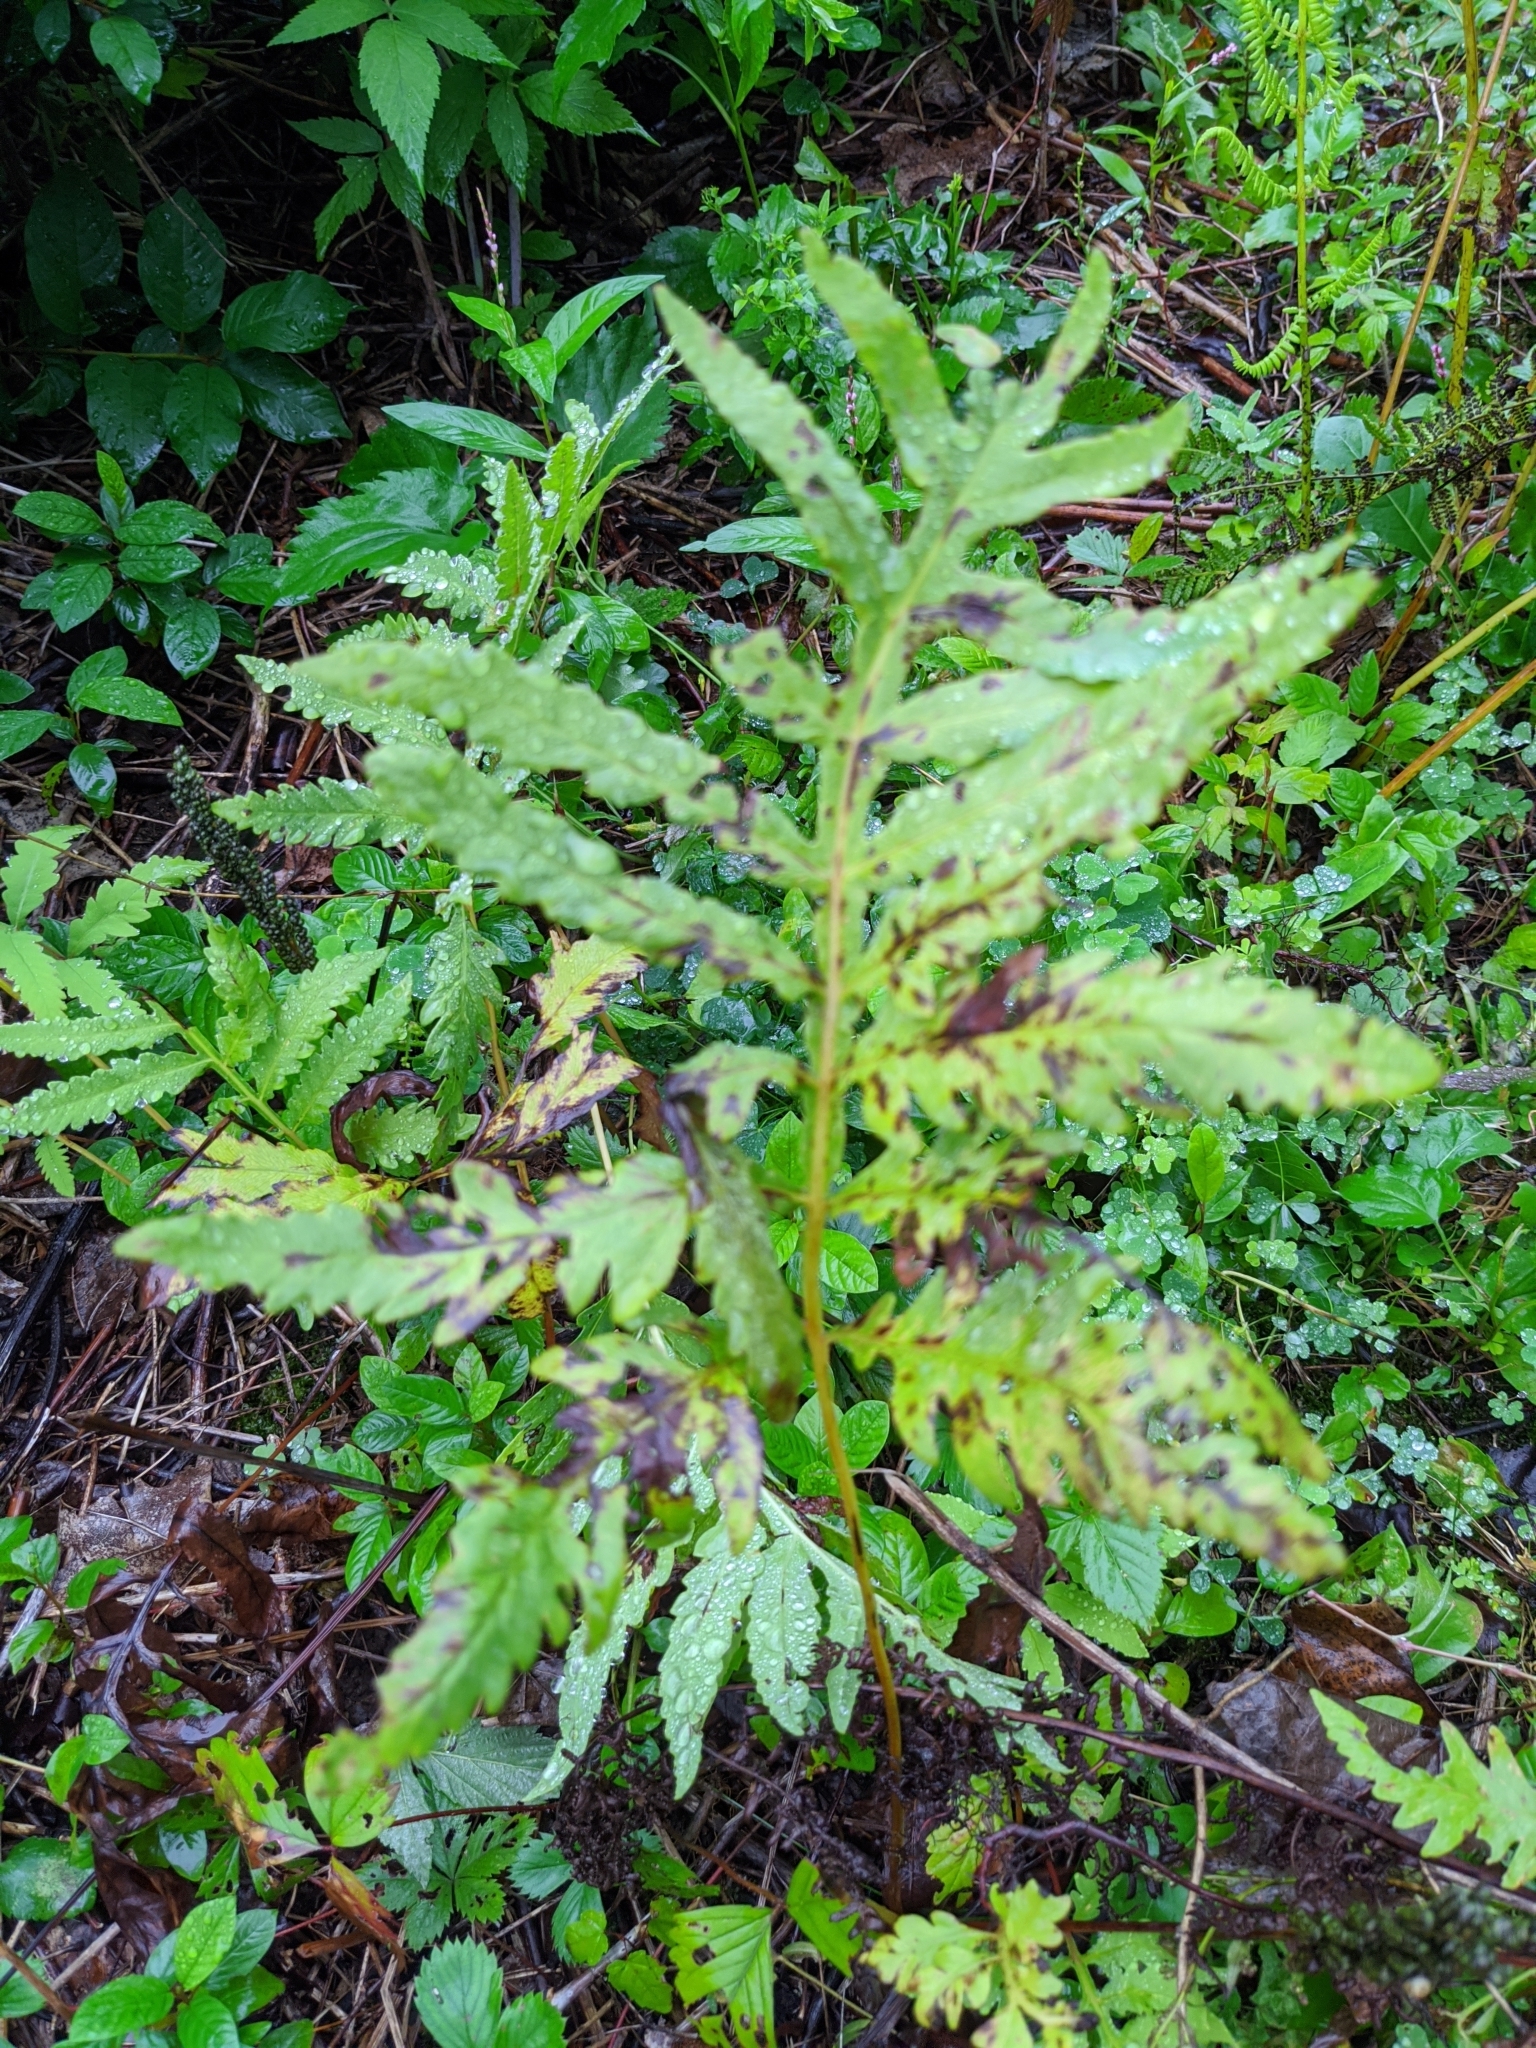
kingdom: Plantae
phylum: Tracheophyta
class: Polypodiopsida
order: Polypodiales
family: Onocleaceae
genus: Onoclea
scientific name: Onoclea sensibilis
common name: Sensitive fern
